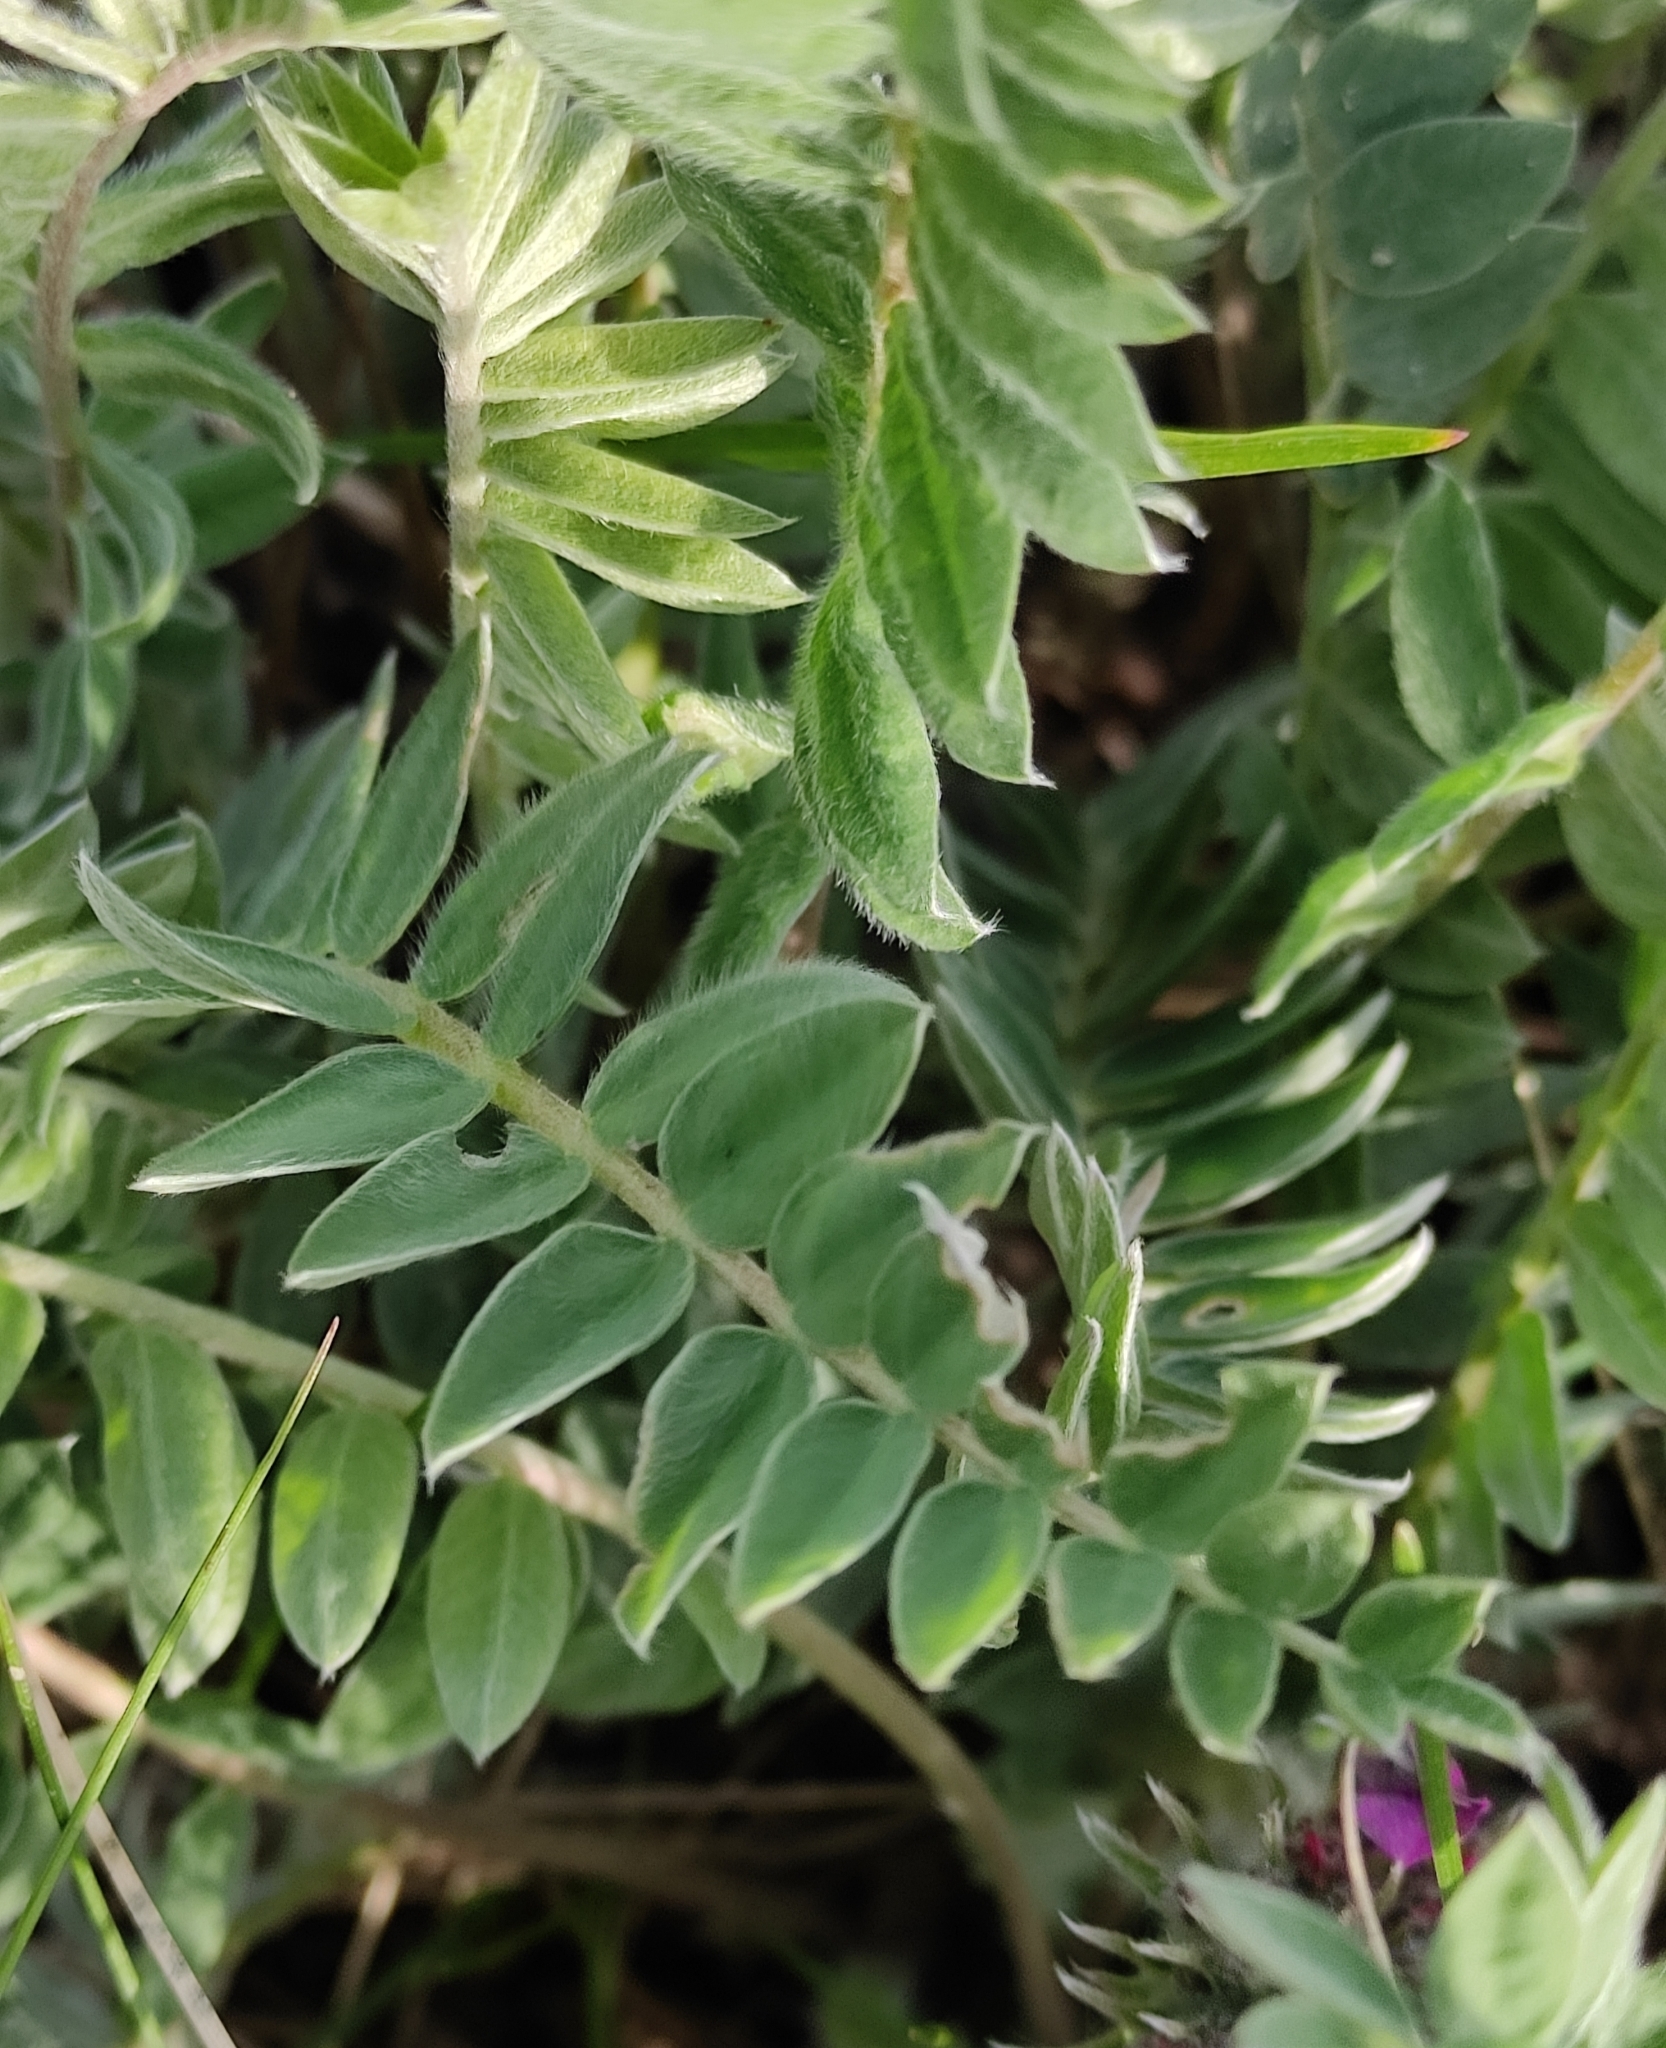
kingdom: Plantae
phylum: Tracheophyta
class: Magnoliopsida
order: Fabales
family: Fabaceae
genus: Oxytropis
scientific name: Oxytropis strobilacea
